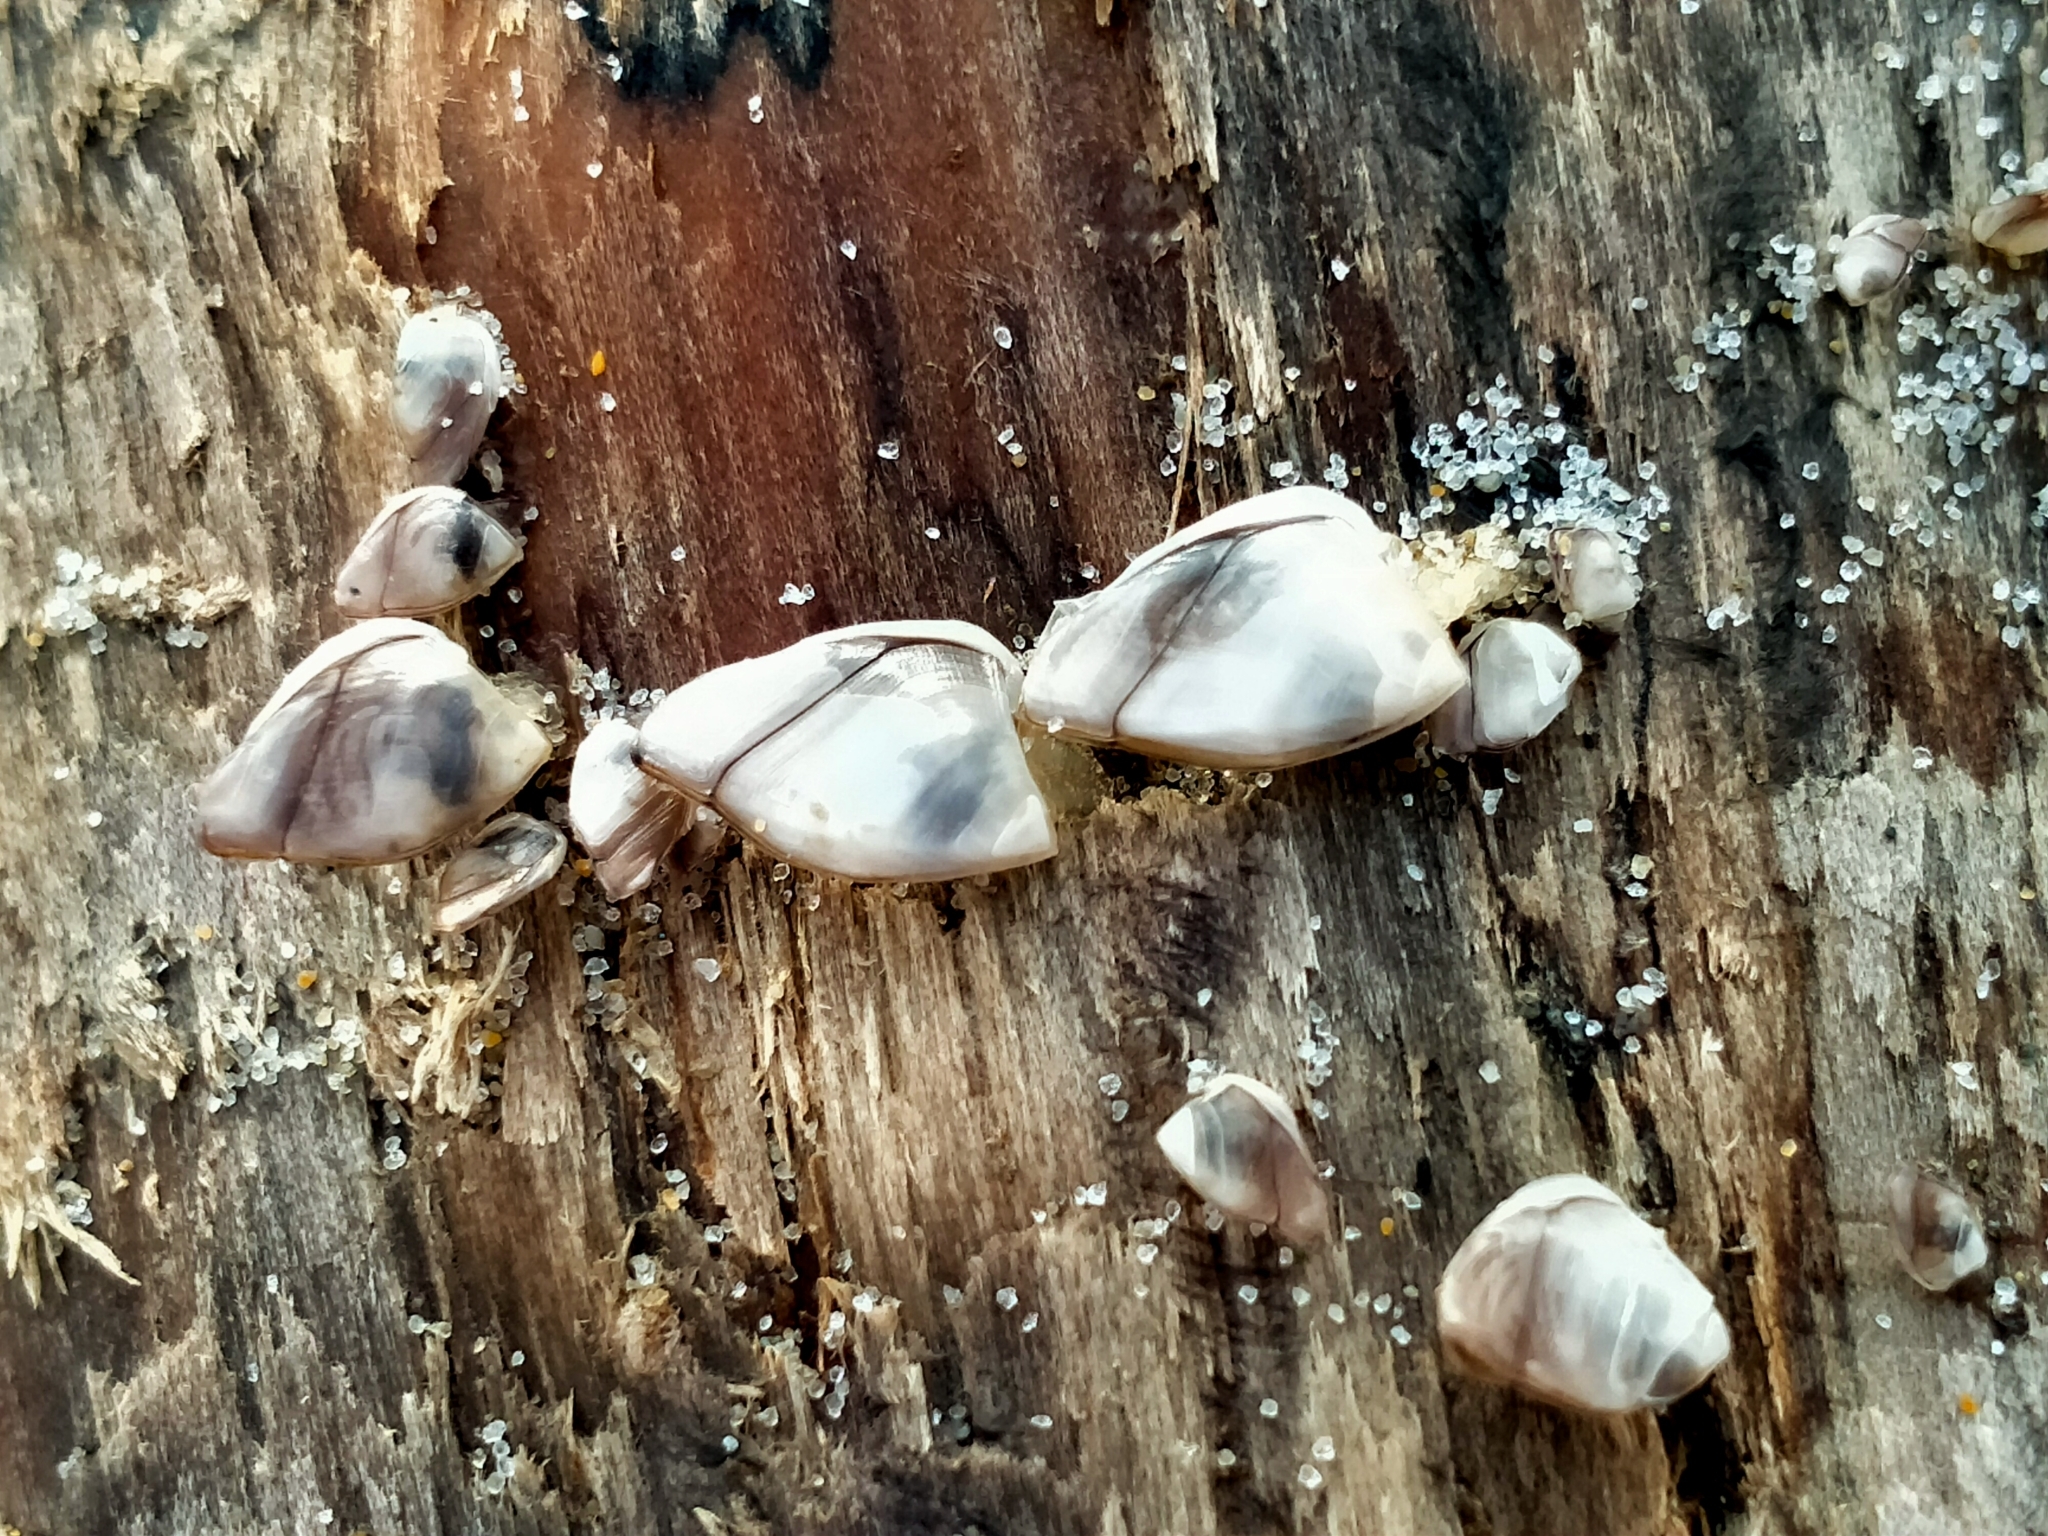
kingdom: Animalia
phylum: Arthropoda
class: Maxillopoda
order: Pedunculata
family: Lepadidae
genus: Lepas
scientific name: Lepas australis
